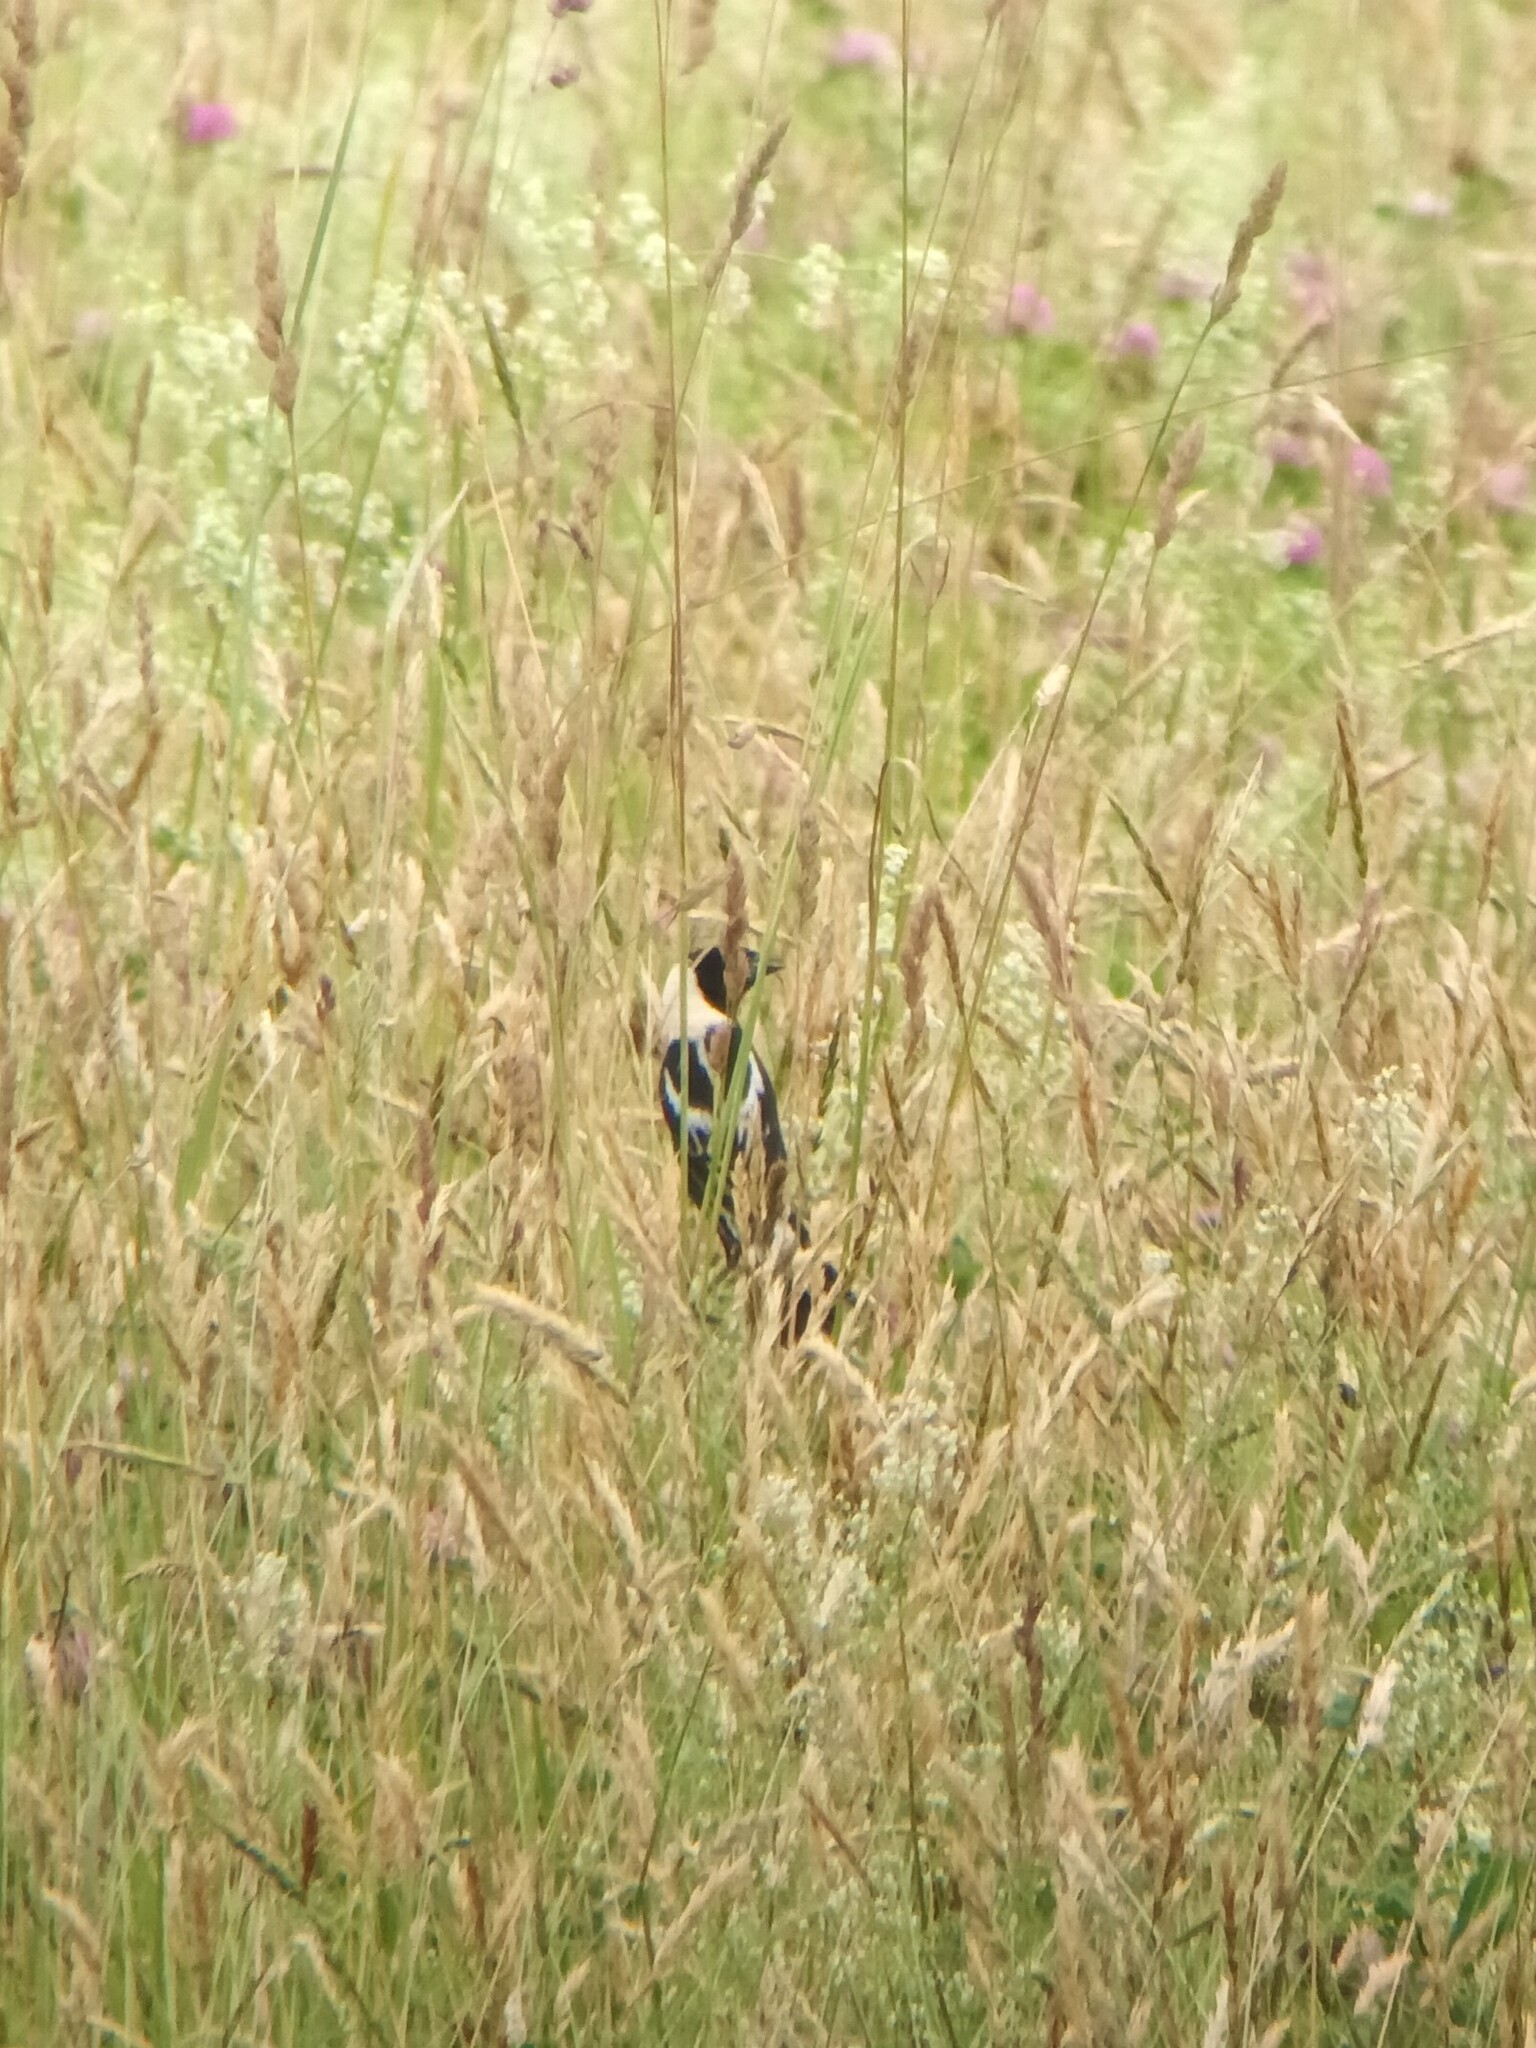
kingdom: Animalia
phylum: Chordata
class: Aves
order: Passeriformes
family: Icteridae
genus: Dolichonyx
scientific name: Dolichonyx oryzivorus
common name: Bobolink
